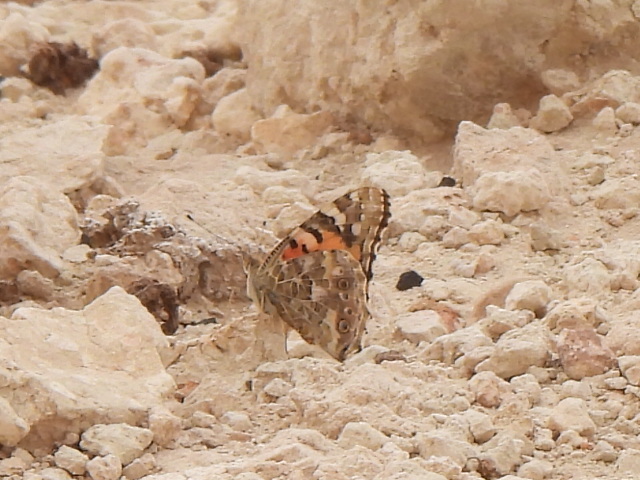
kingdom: Animalia
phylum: Arthropoda
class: Insecta
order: Lepidoptera
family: Nymphalidae
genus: Vanessa
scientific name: Vanessa cardui
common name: Painted lady
